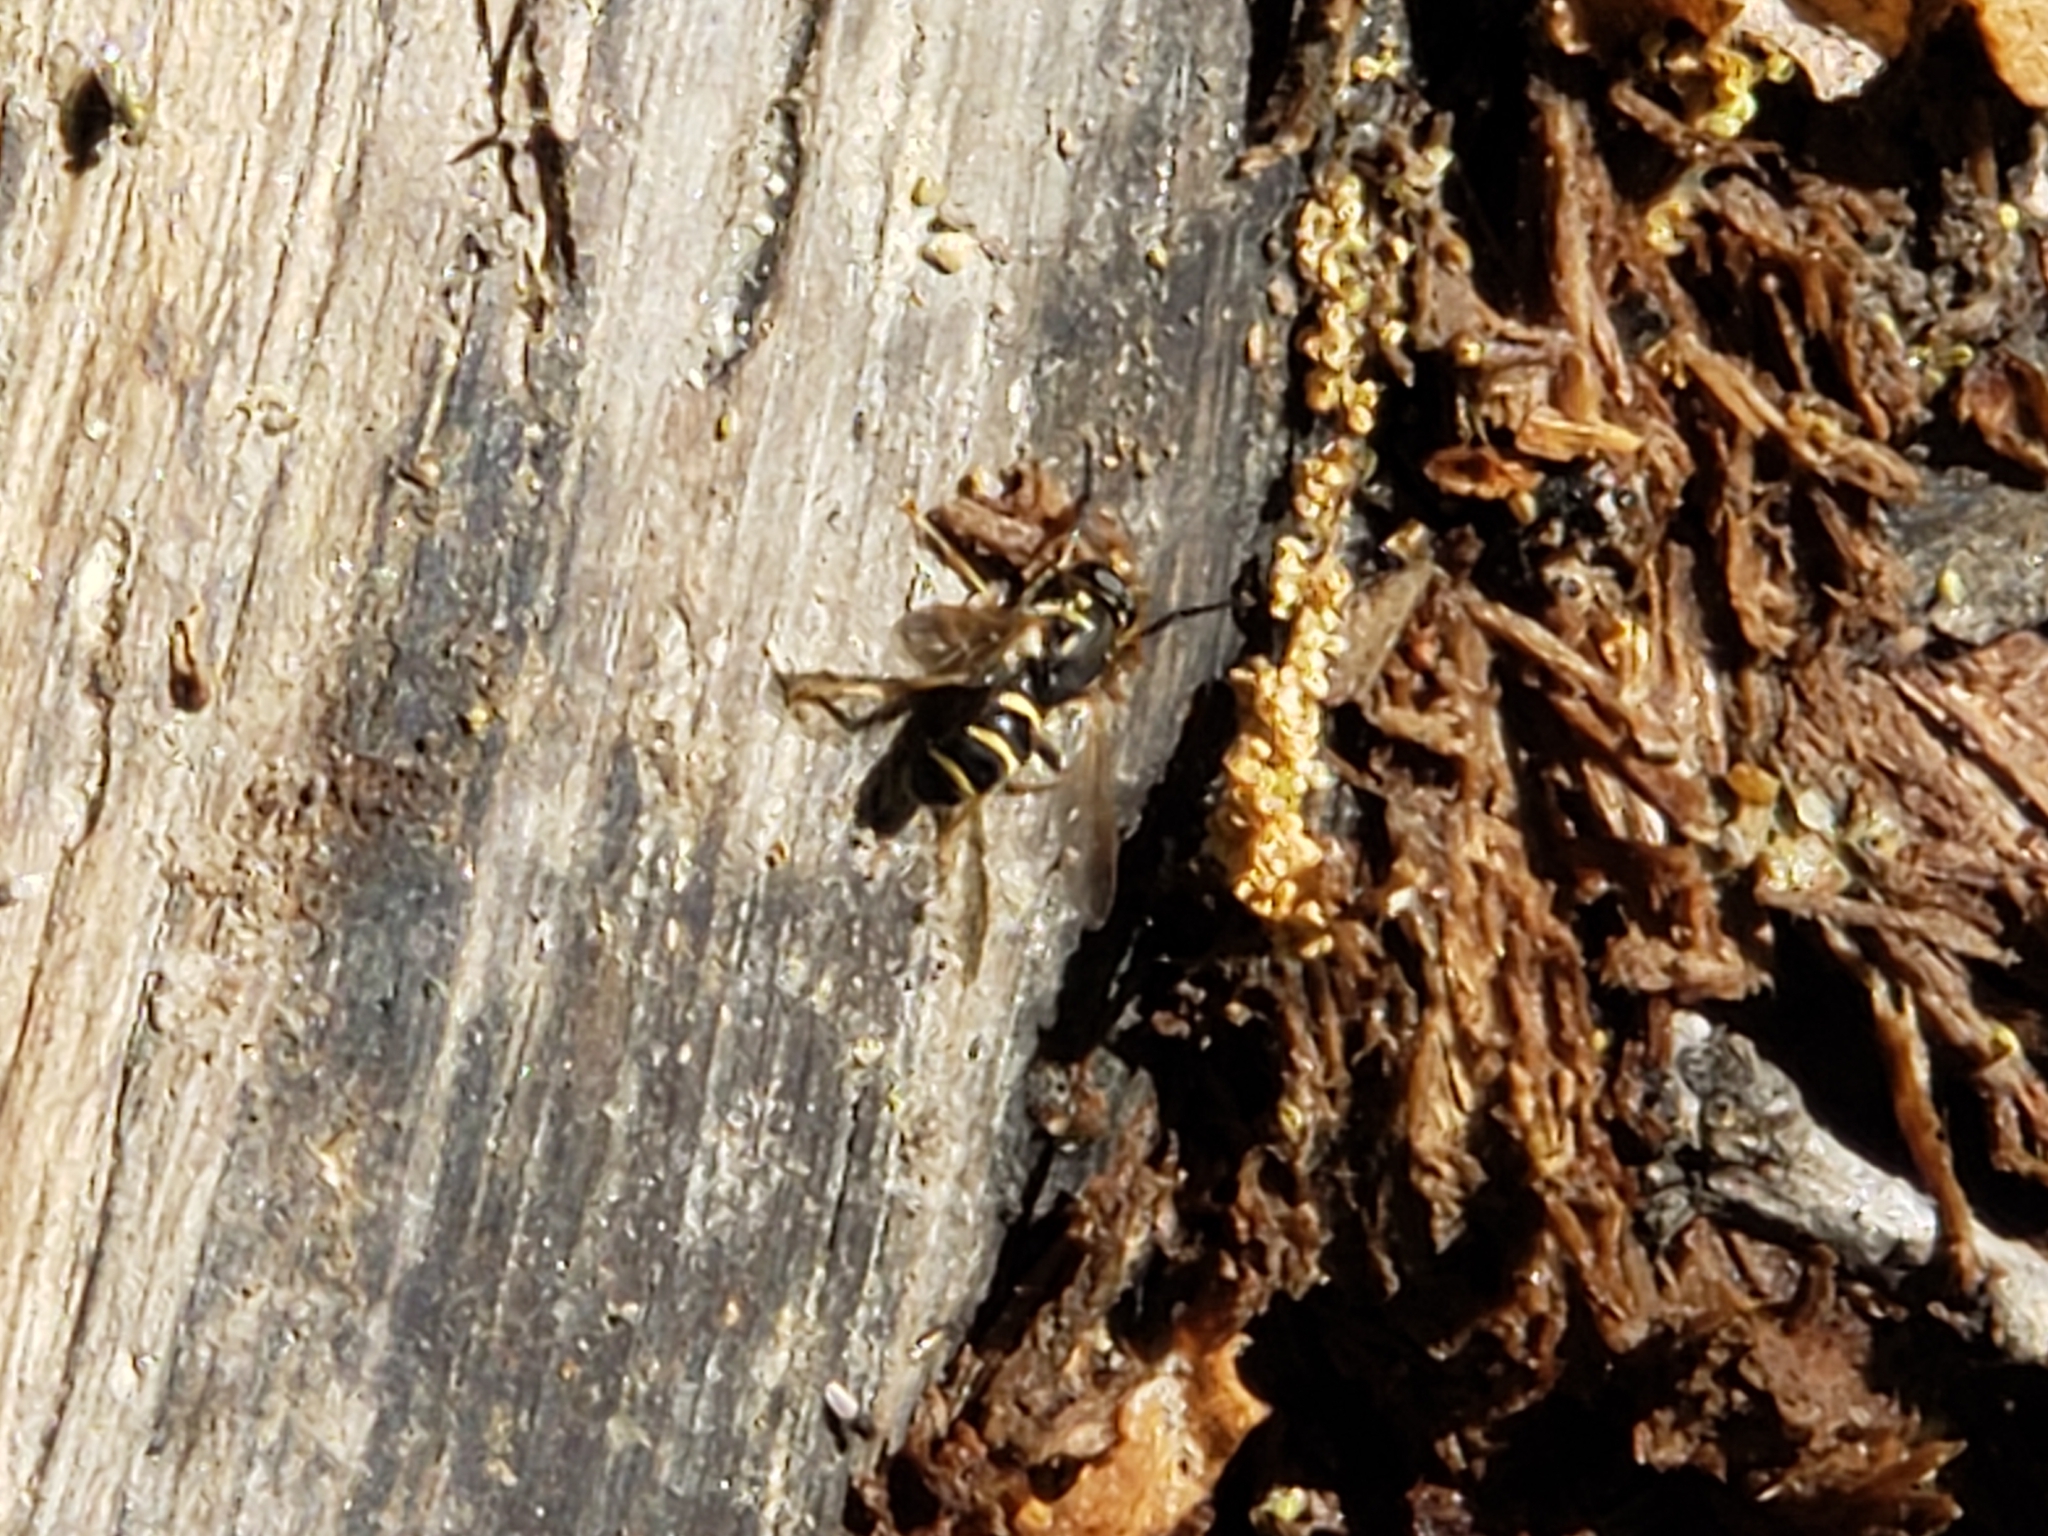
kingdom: Animalia
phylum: Arthropoda
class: Insecta
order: Diptera
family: Syrphidae
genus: Temnostoma
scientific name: Temnostoma
